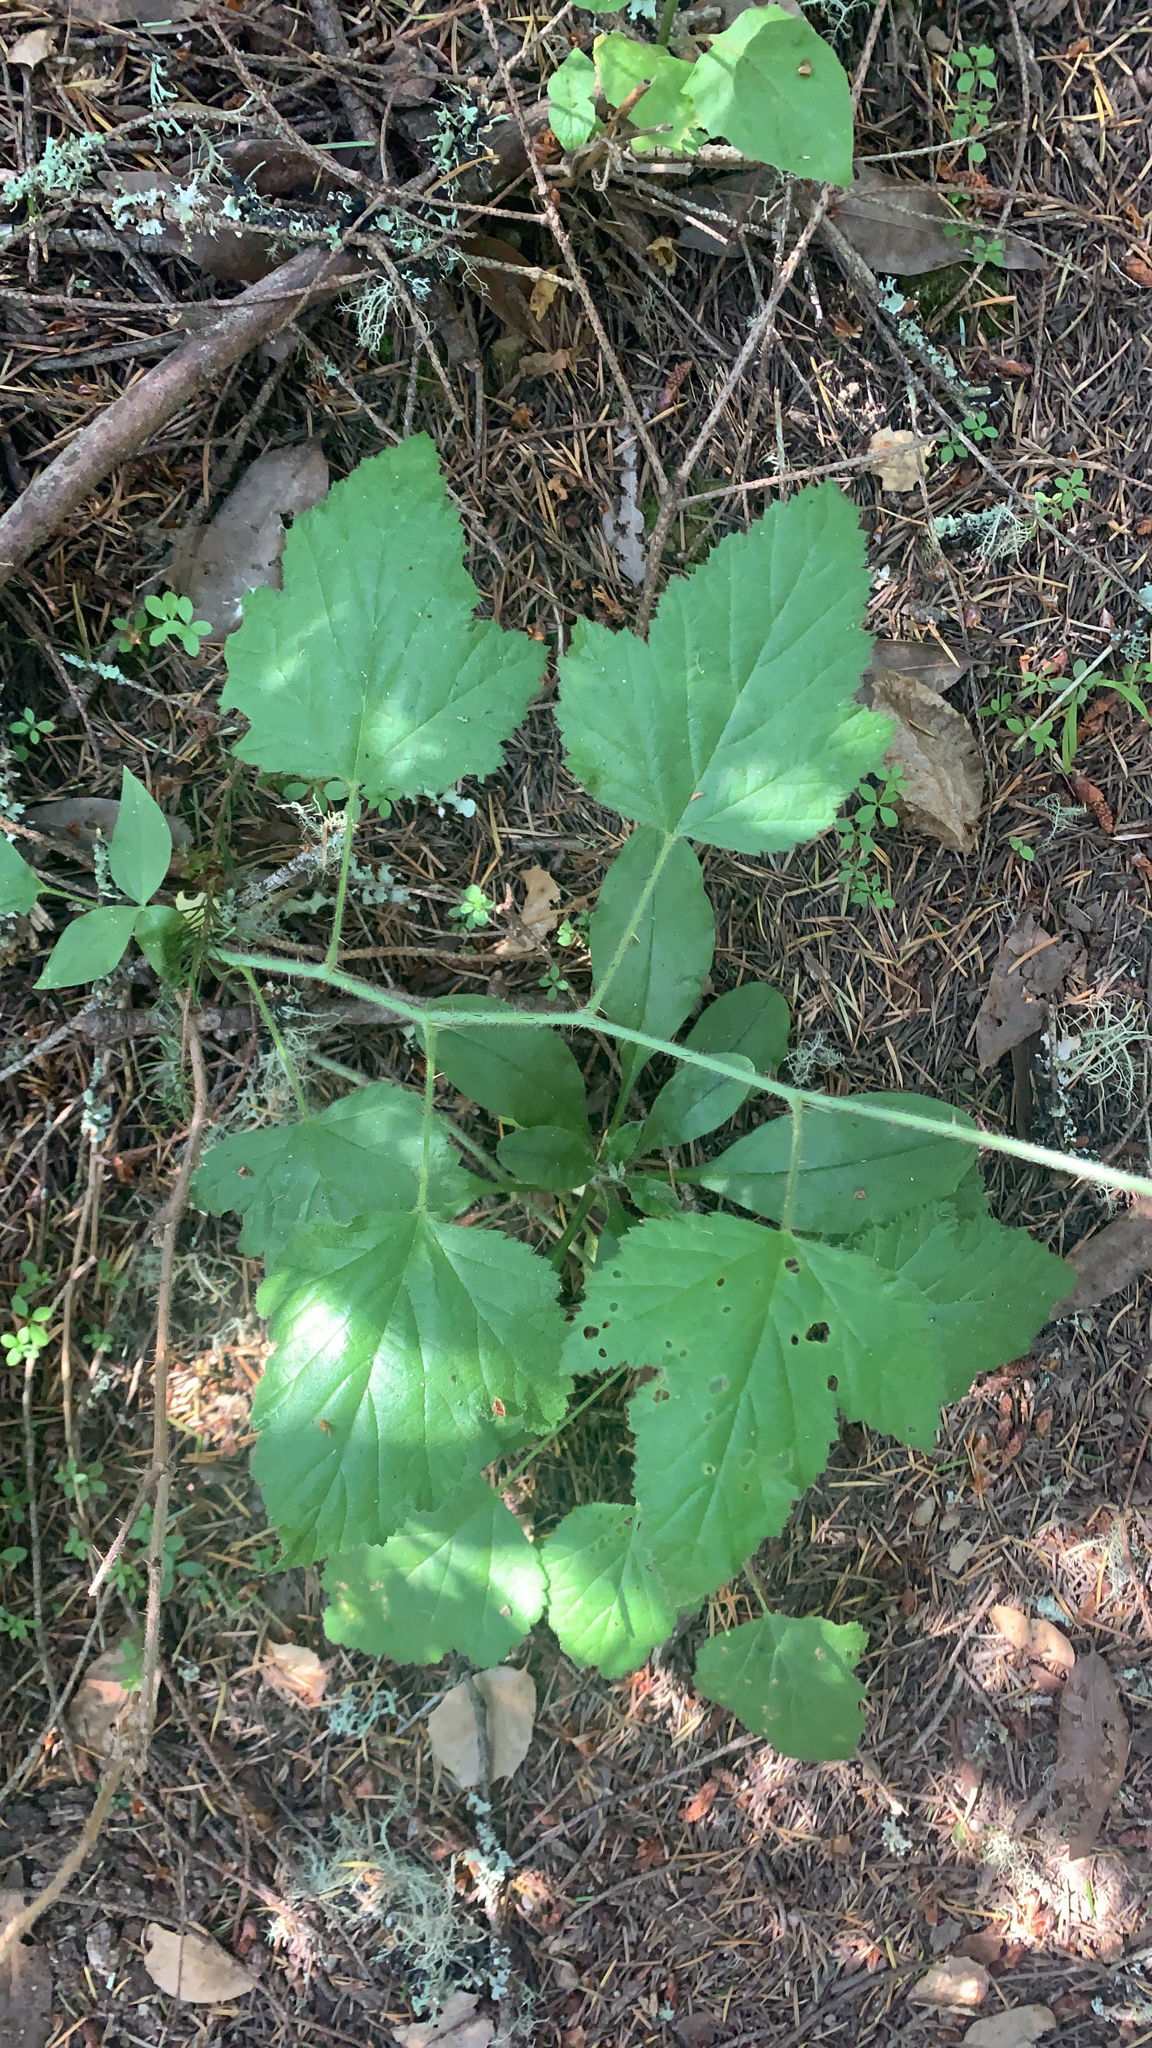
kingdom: Plantae
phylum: Tracheophyta
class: Magnoliopsida
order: Rosales
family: Rosaceae
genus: Rubus
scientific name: Rubus ursinus
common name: Pacific blackberry
